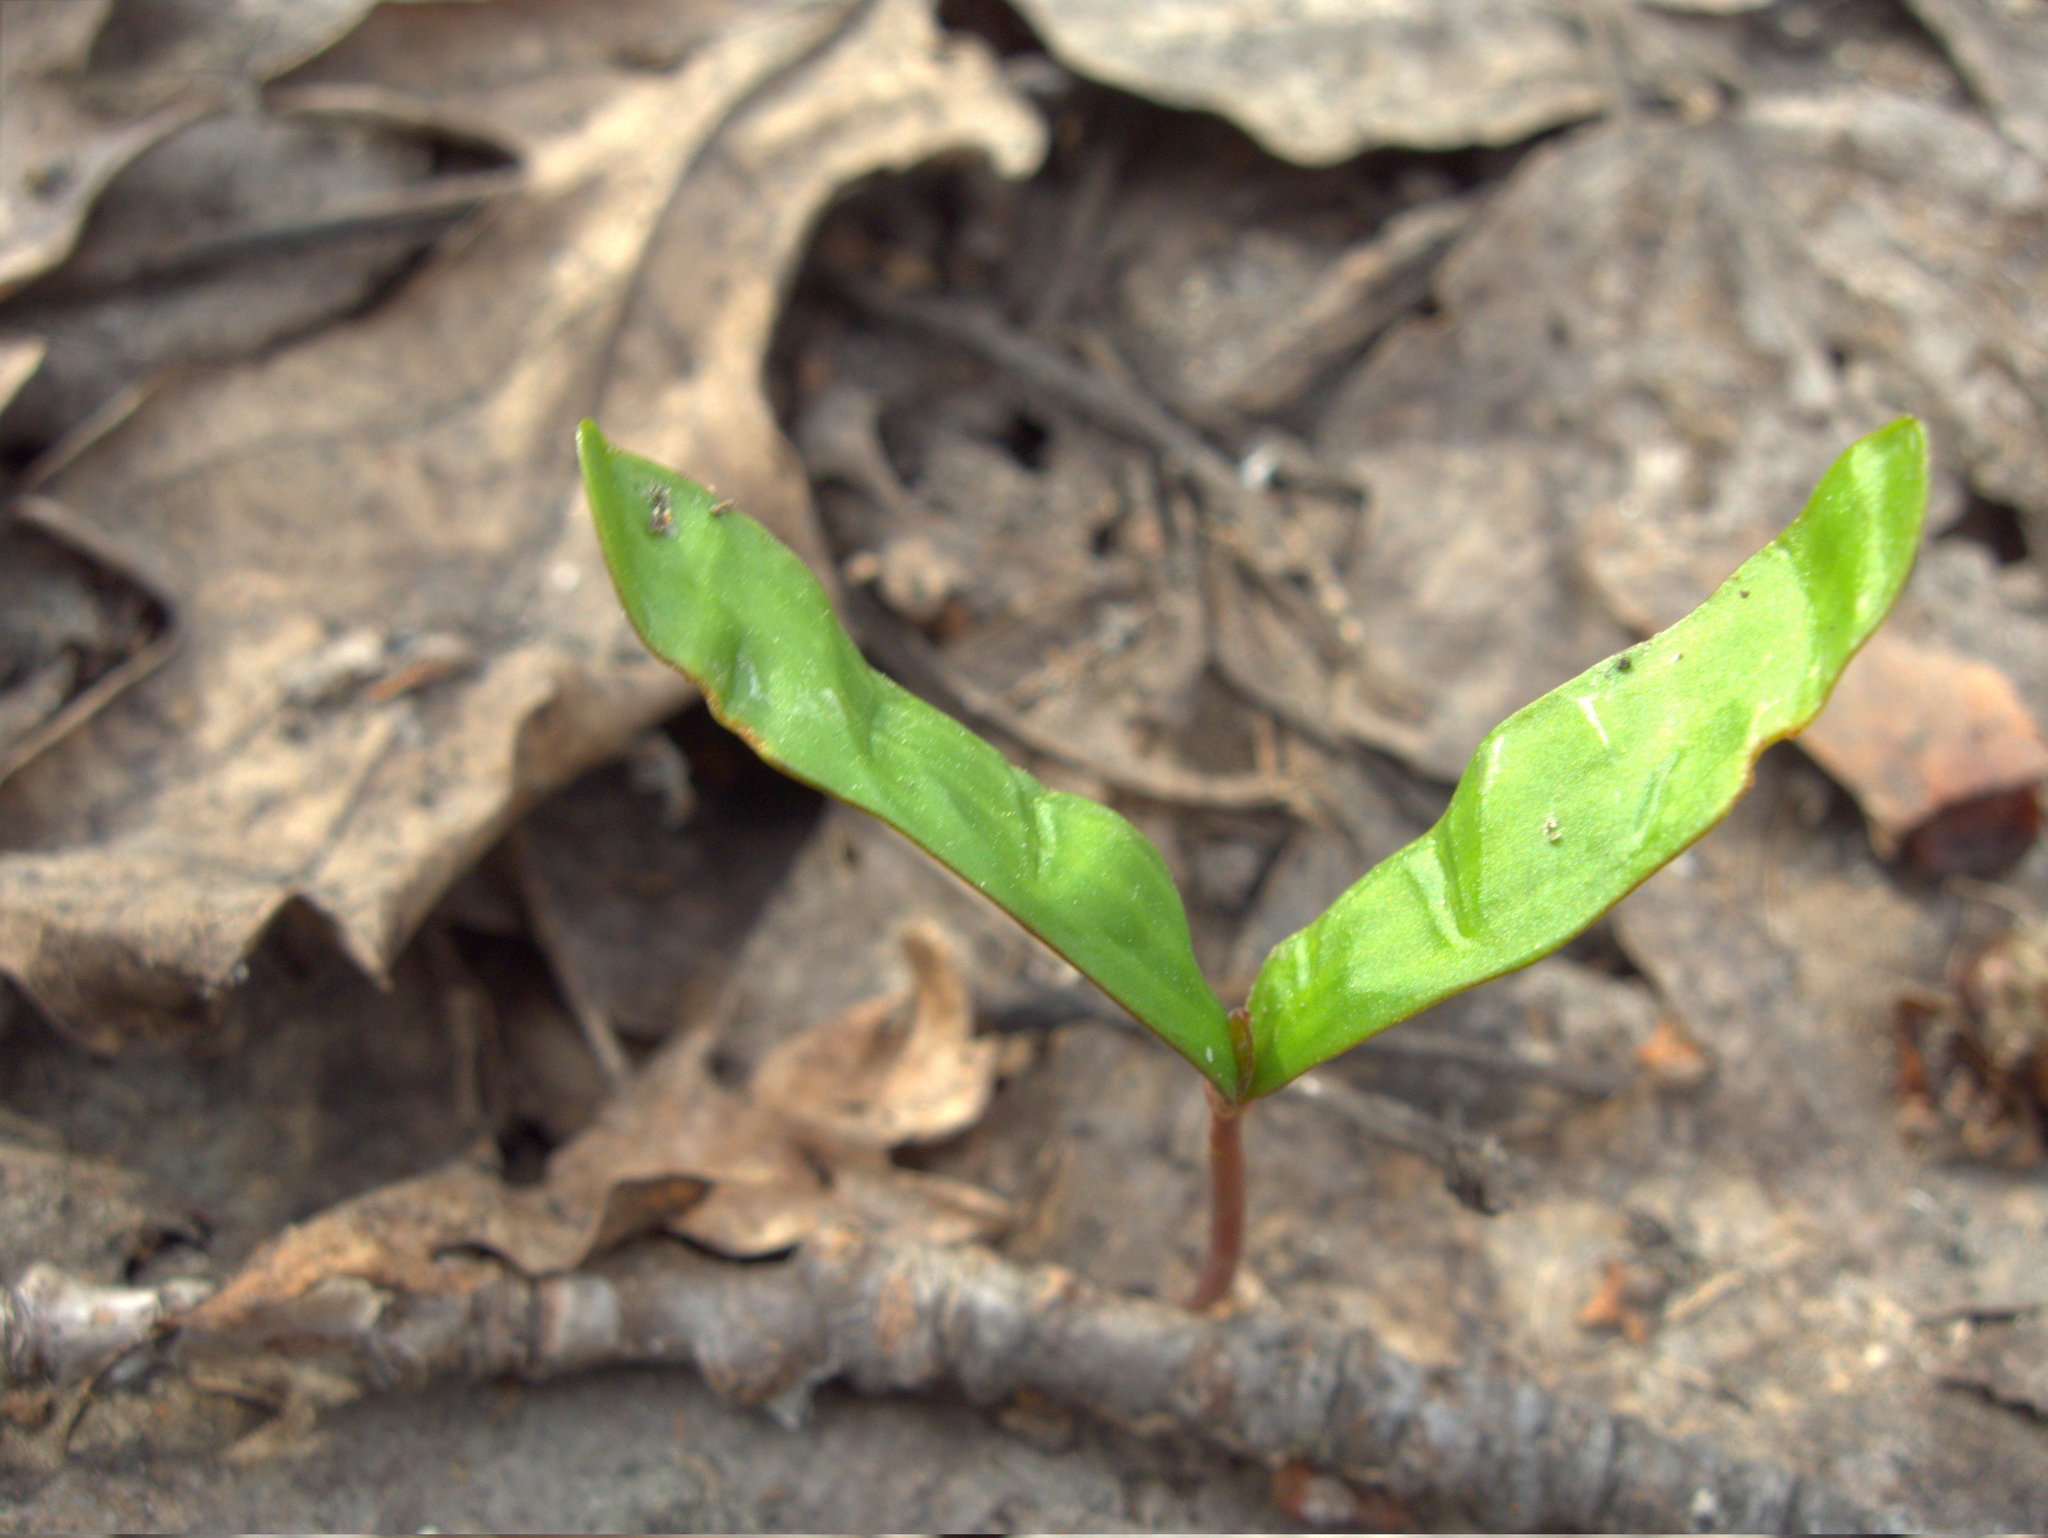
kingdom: Plantae
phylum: Tracheophyta
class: Magnoliopsida
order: Sapindales
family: Sapindaceae
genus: Acer
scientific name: Acer platanoides
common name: Norway maple
